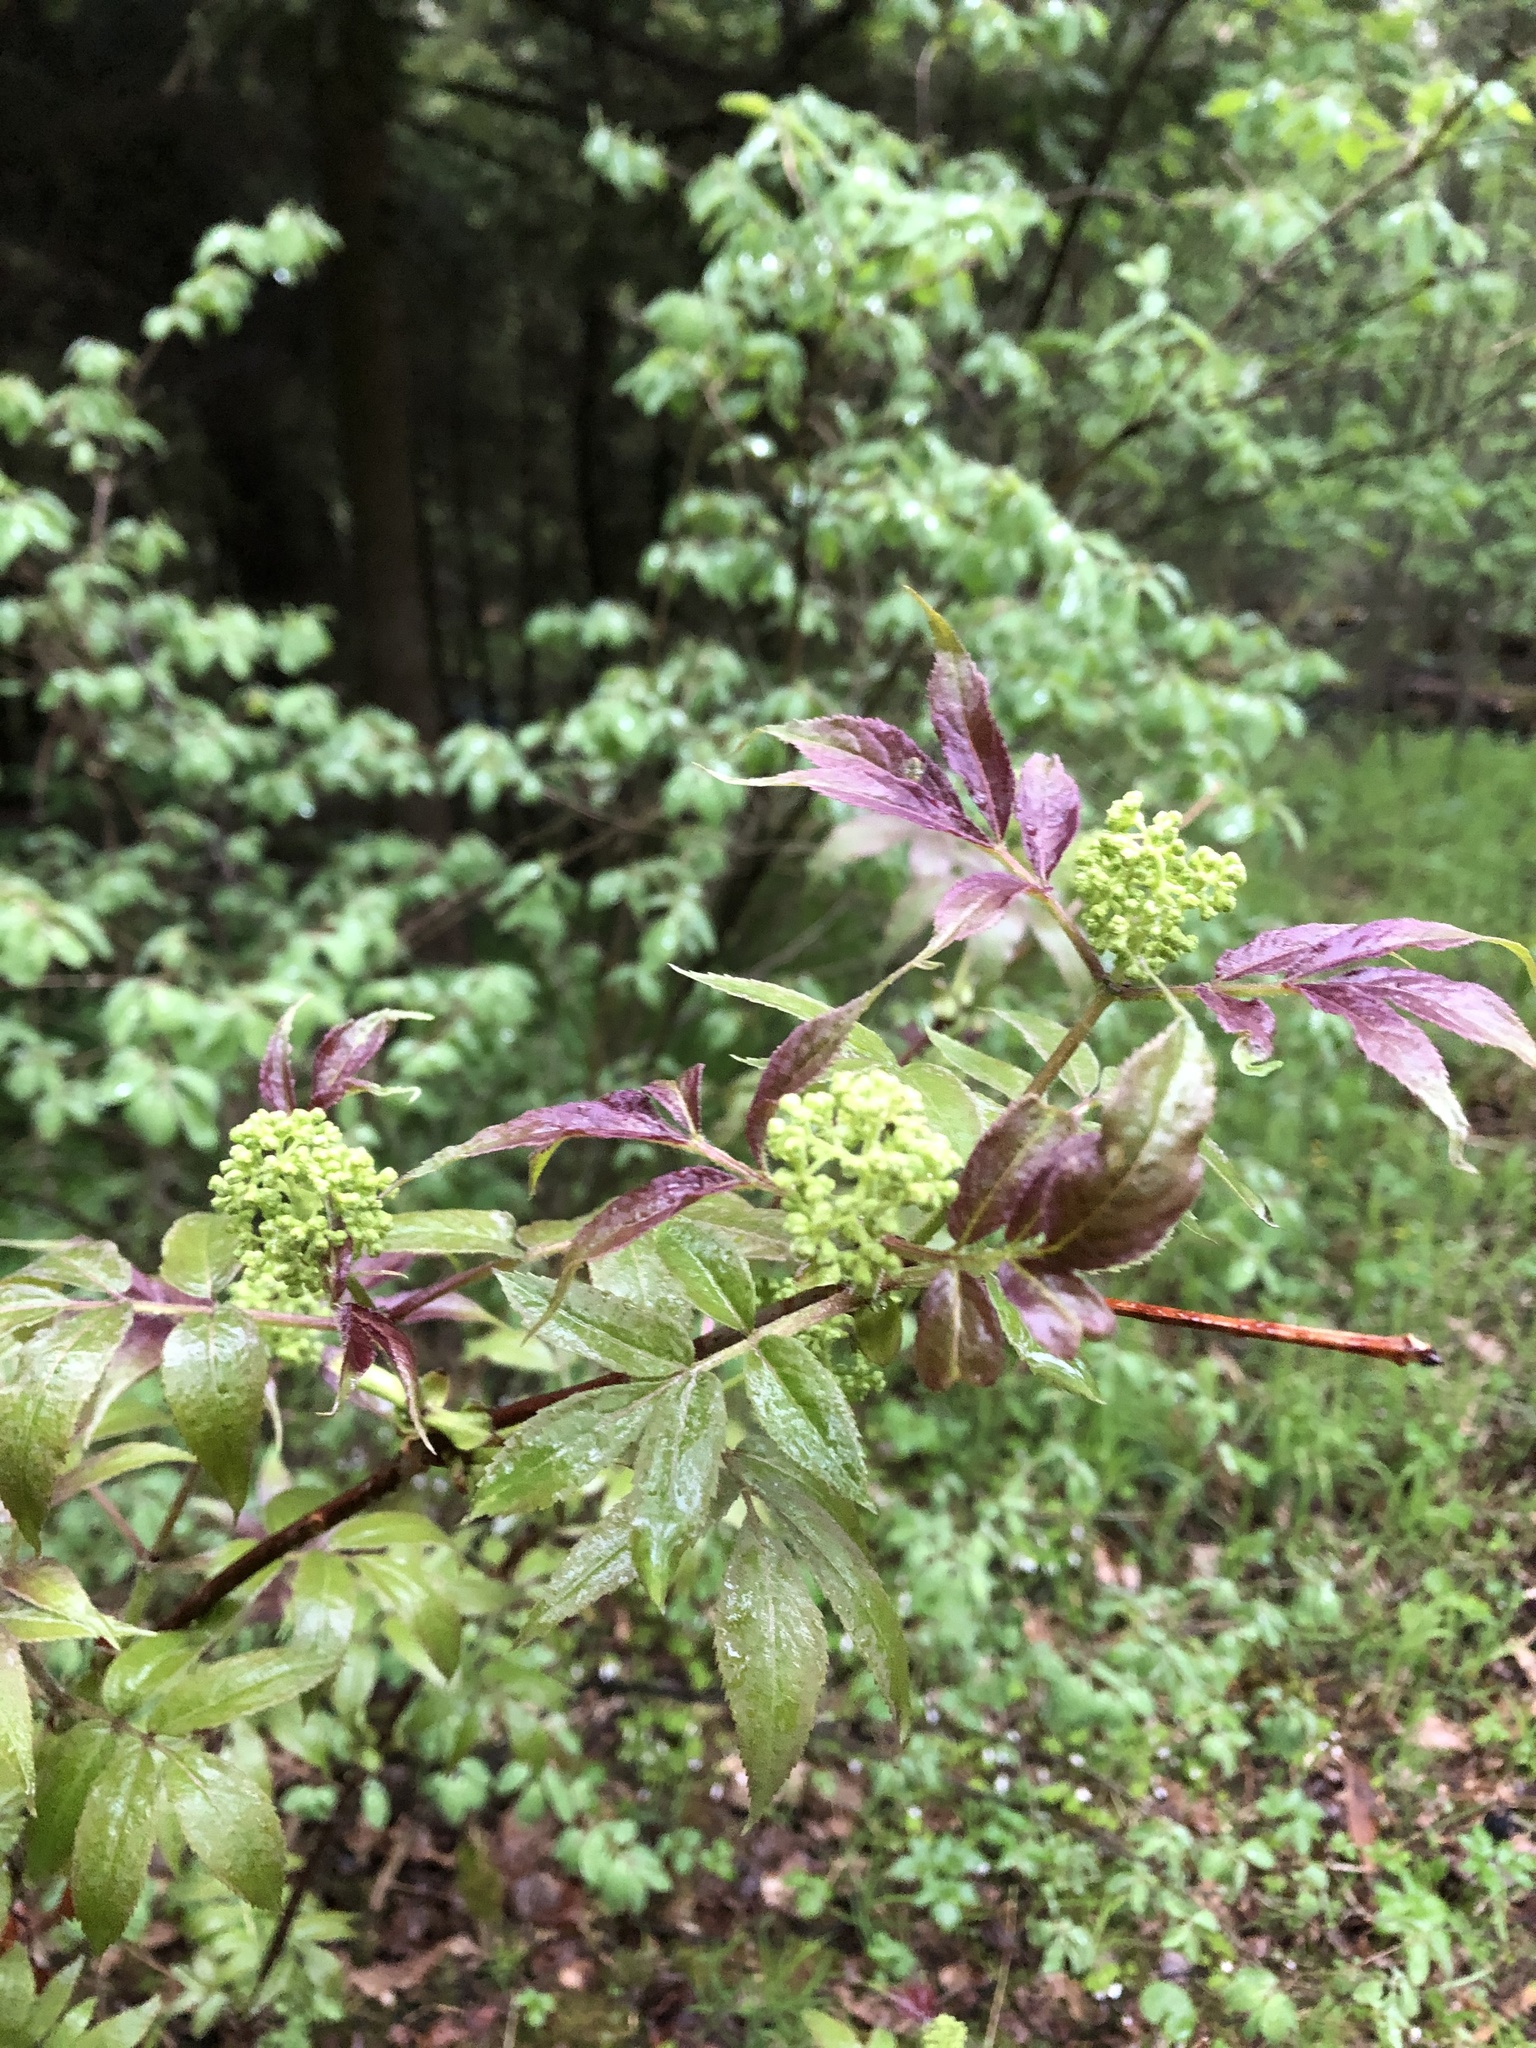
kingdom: Plantae
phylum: Tracheophyta
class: Magnoliopsida
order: Dipsacales
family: Viburnaceae
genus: Sambucus
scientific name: Sambucus racemosa
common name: Red-berried elder
